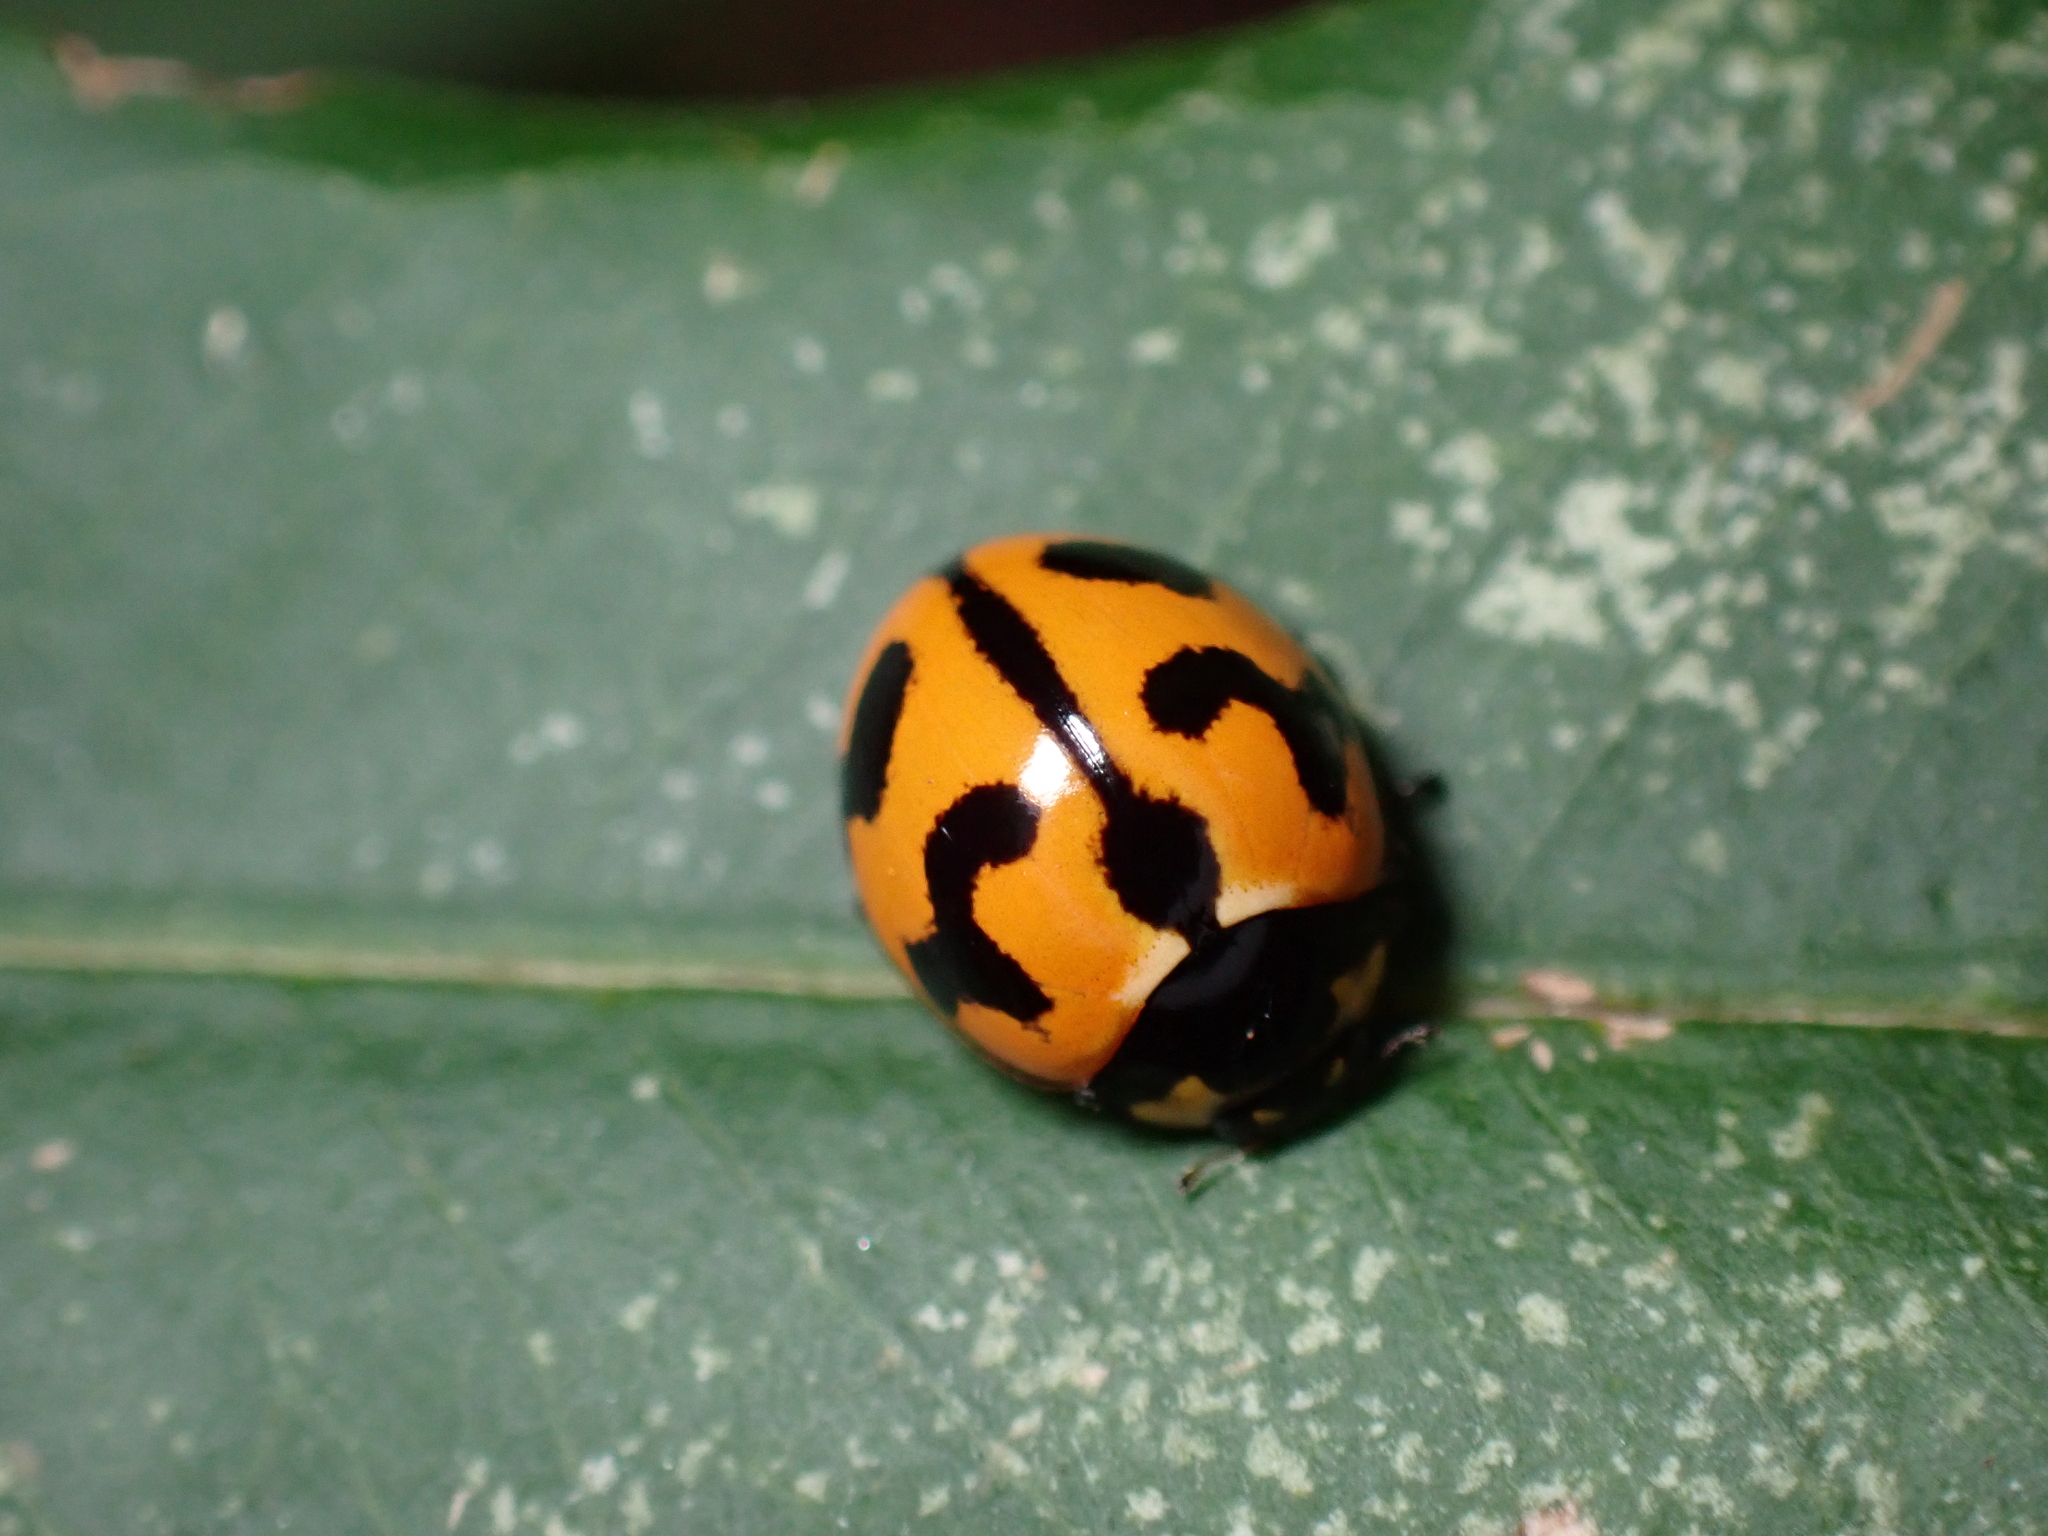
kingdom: Animalia
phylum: Arthropoda
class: Insecta
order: Coleoptera
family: Coccinellidae
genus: Coccinella
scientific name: Coccinella transversalis
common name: Transverse lady beetle
